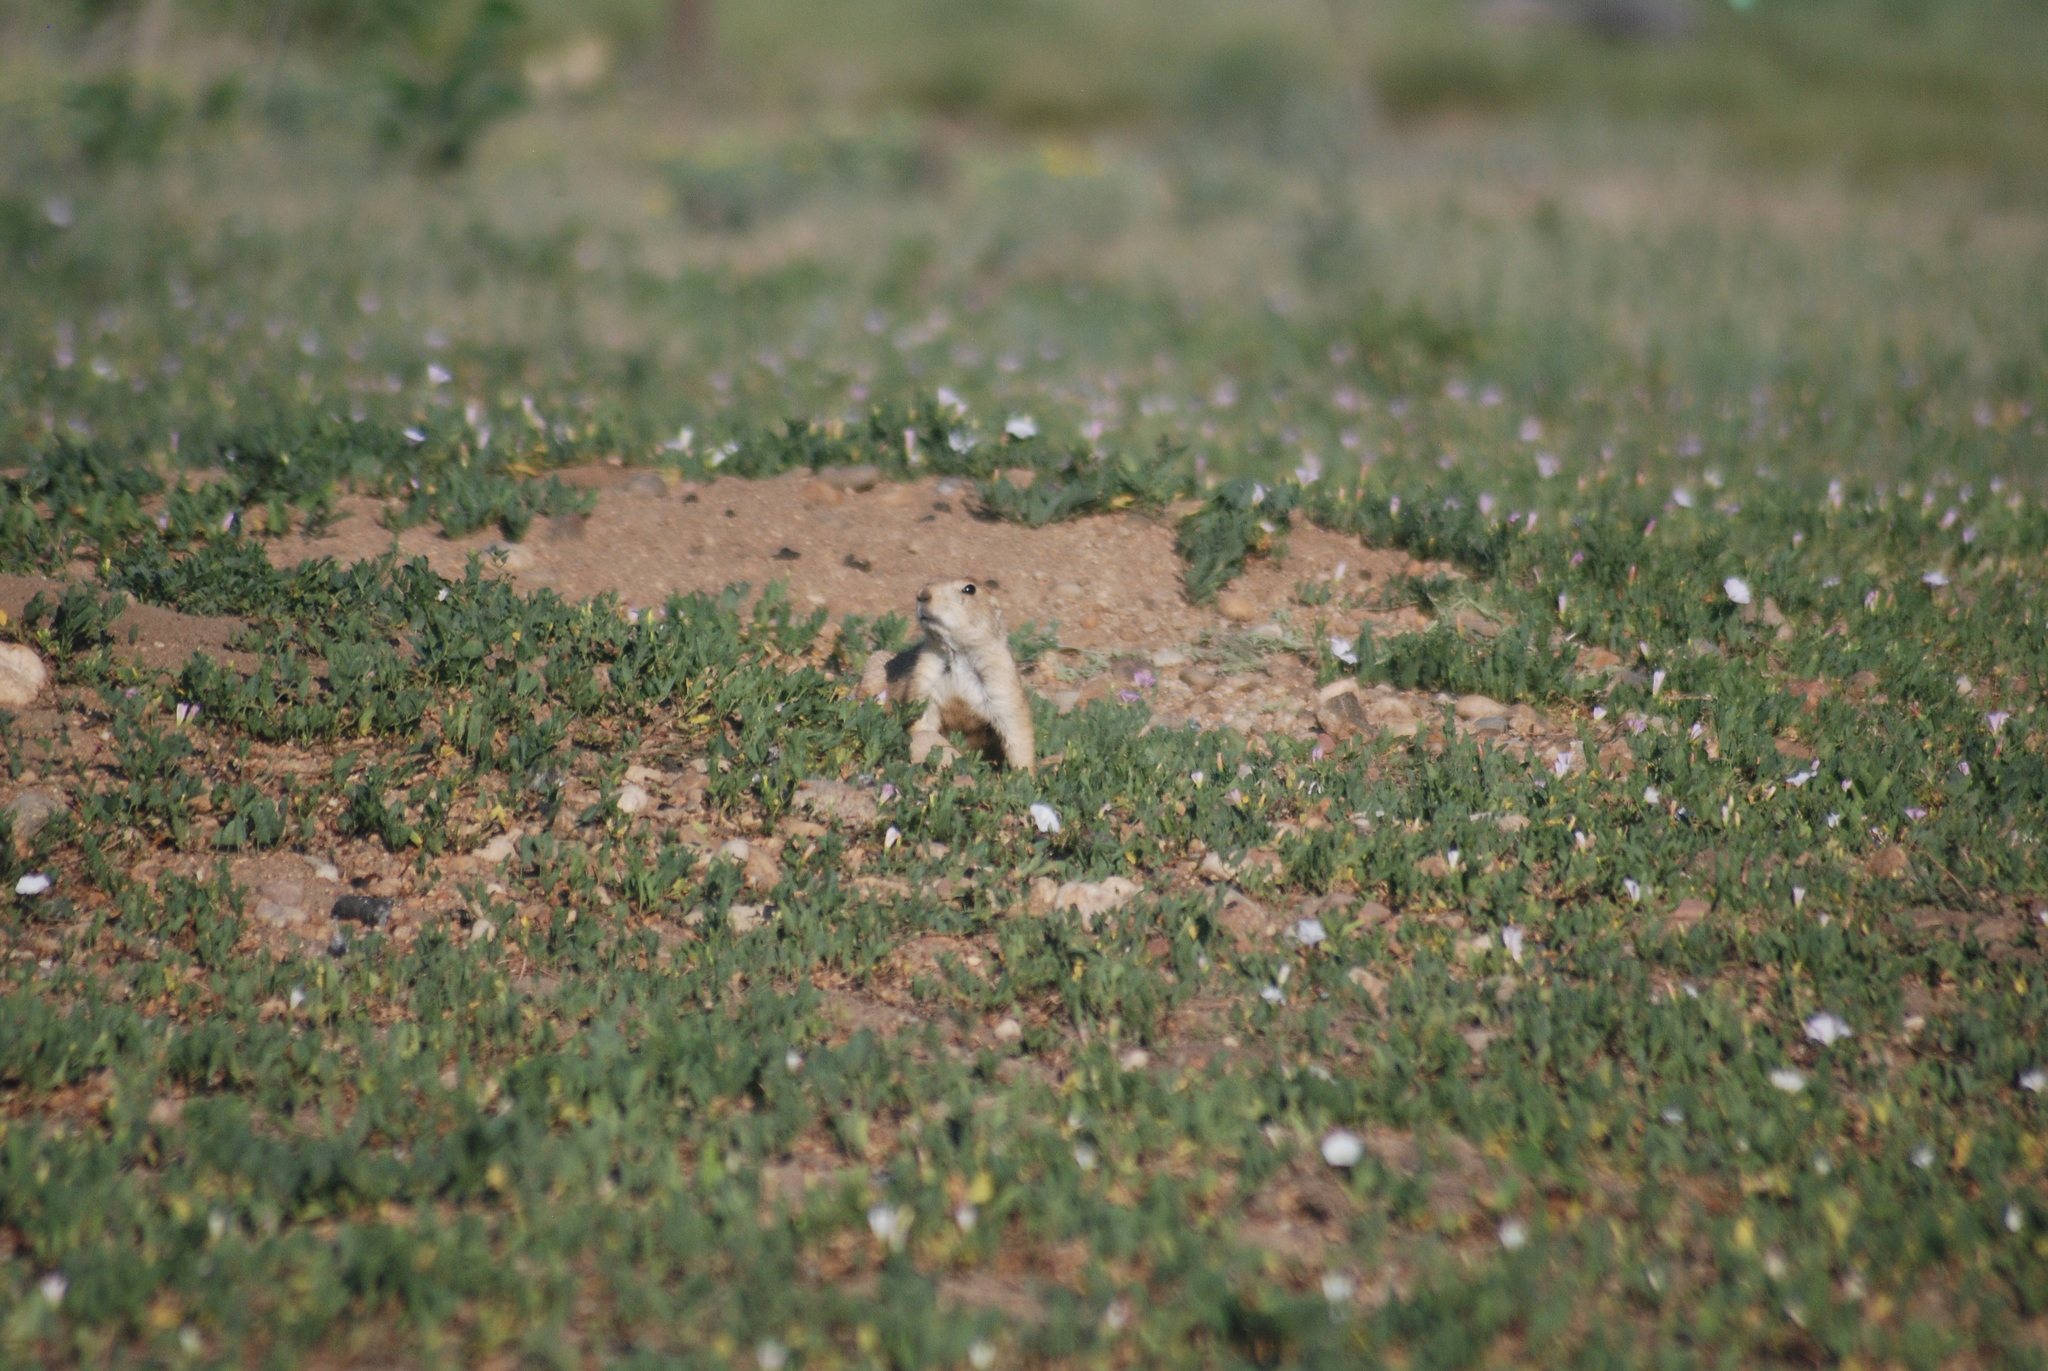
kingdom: Plantae
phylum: Tracheophyta
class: Magnoliopsida
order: Solanales
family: Convolvulaceae
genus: Convolvulus
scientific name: Convolvulus arvensis
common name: Field bindweed
